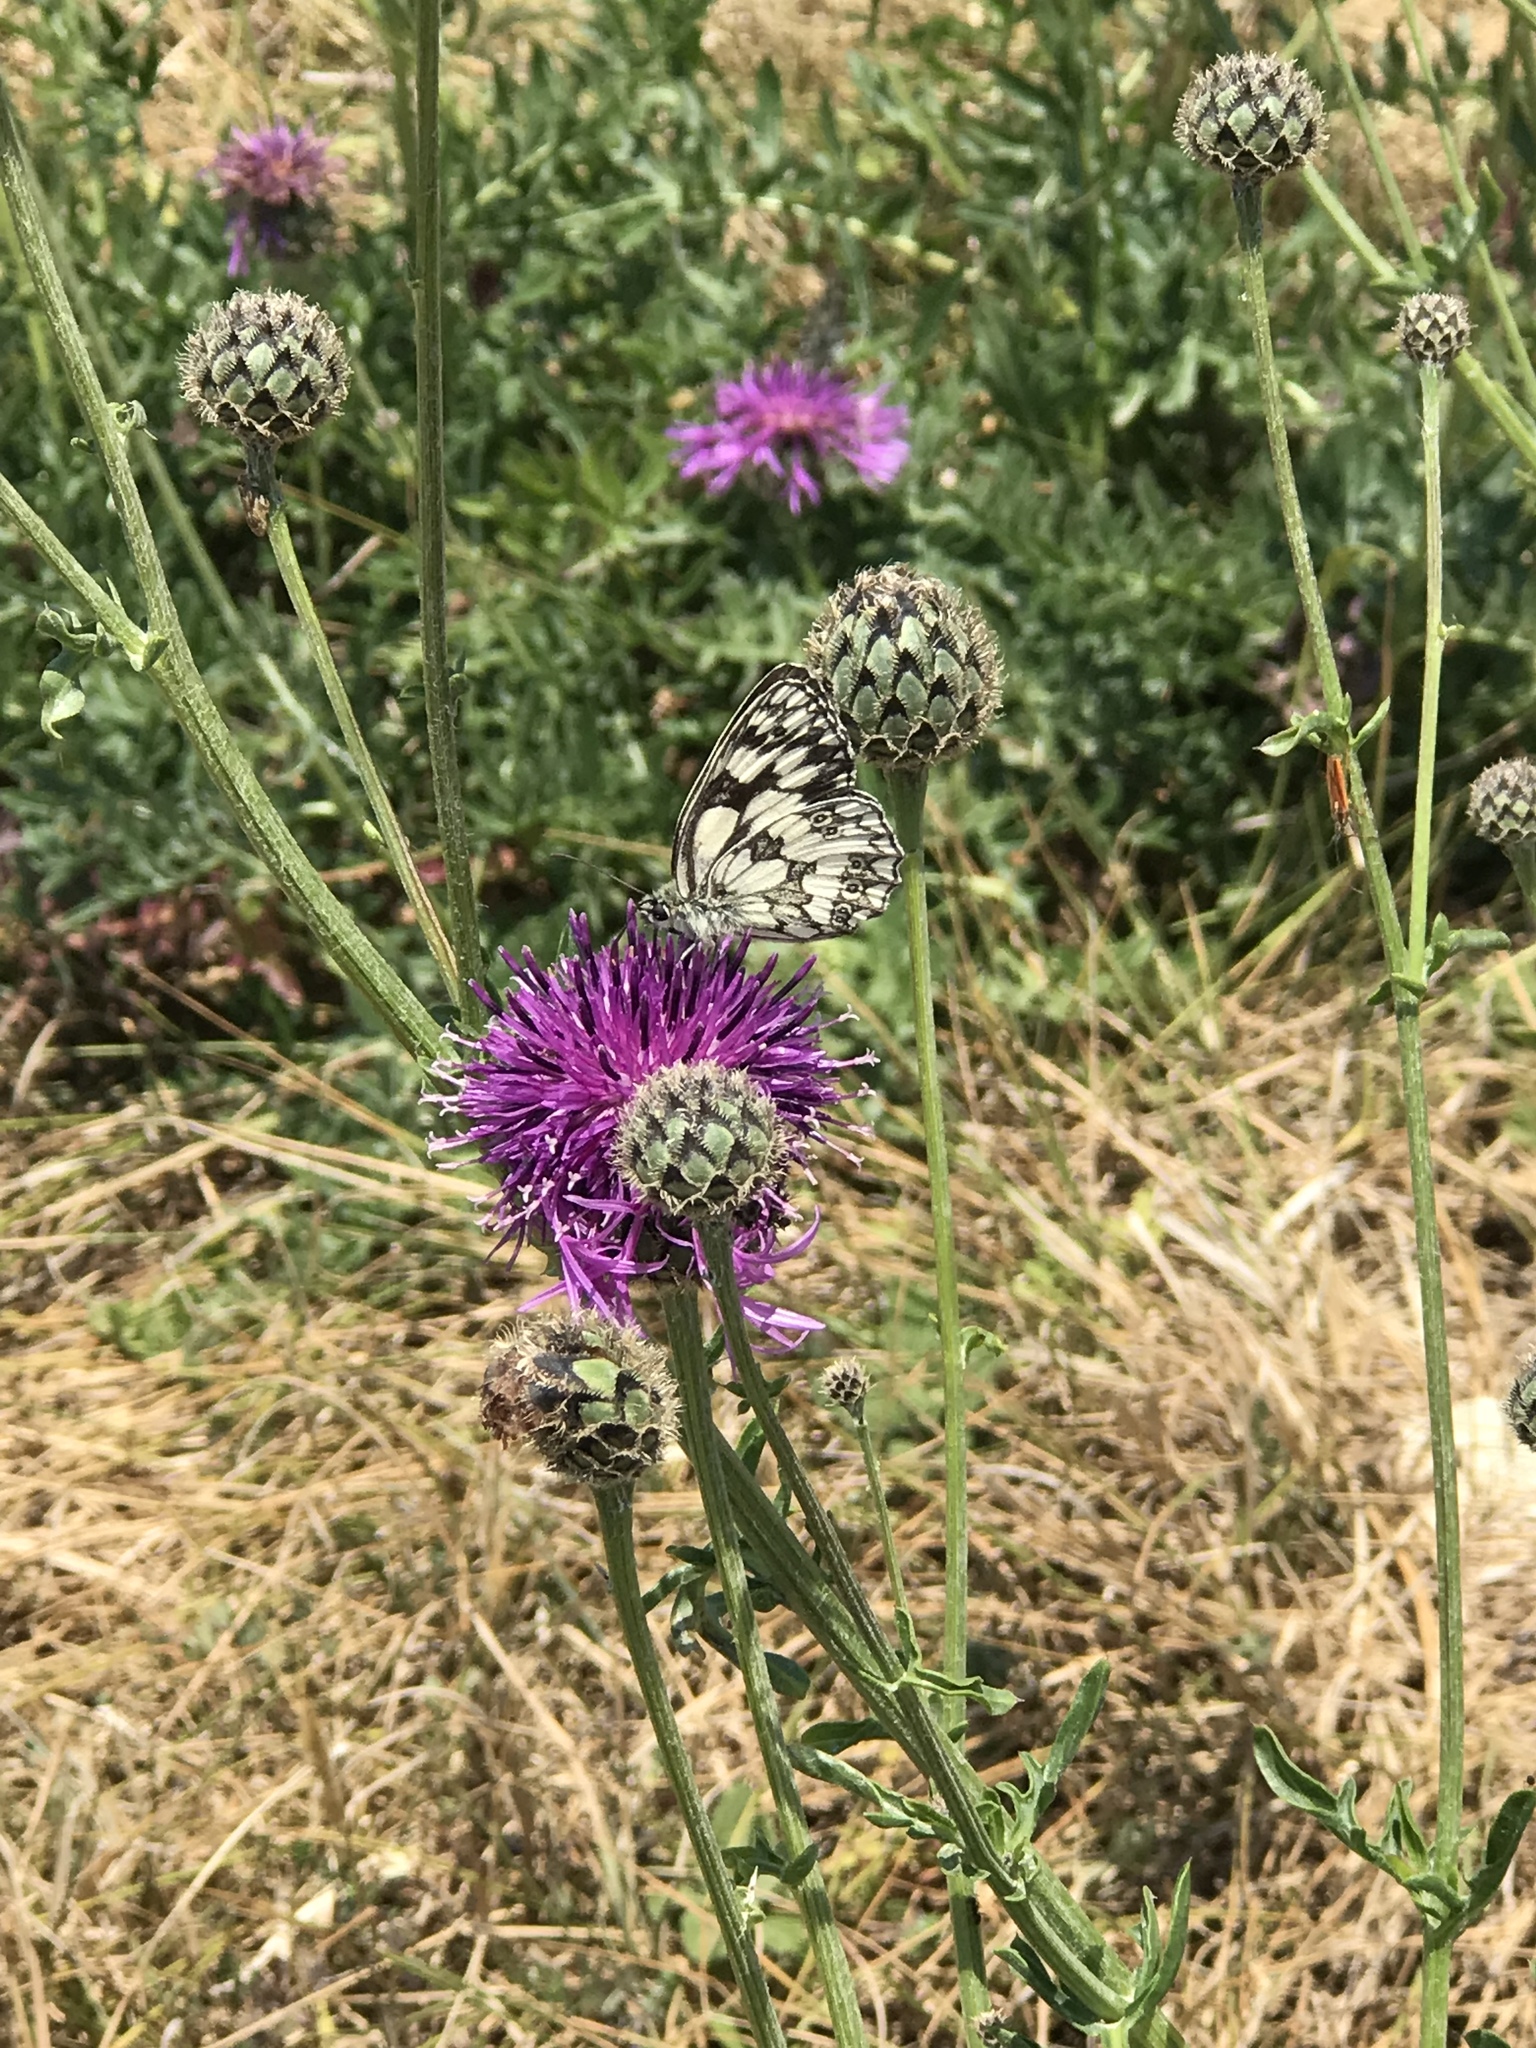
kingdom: Animalia
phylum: Arthropoda
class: Insecta
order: Lepidoptera
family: Nymphalidae
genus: Melanargia
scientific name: Melanargia galathea
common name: Marbled white
